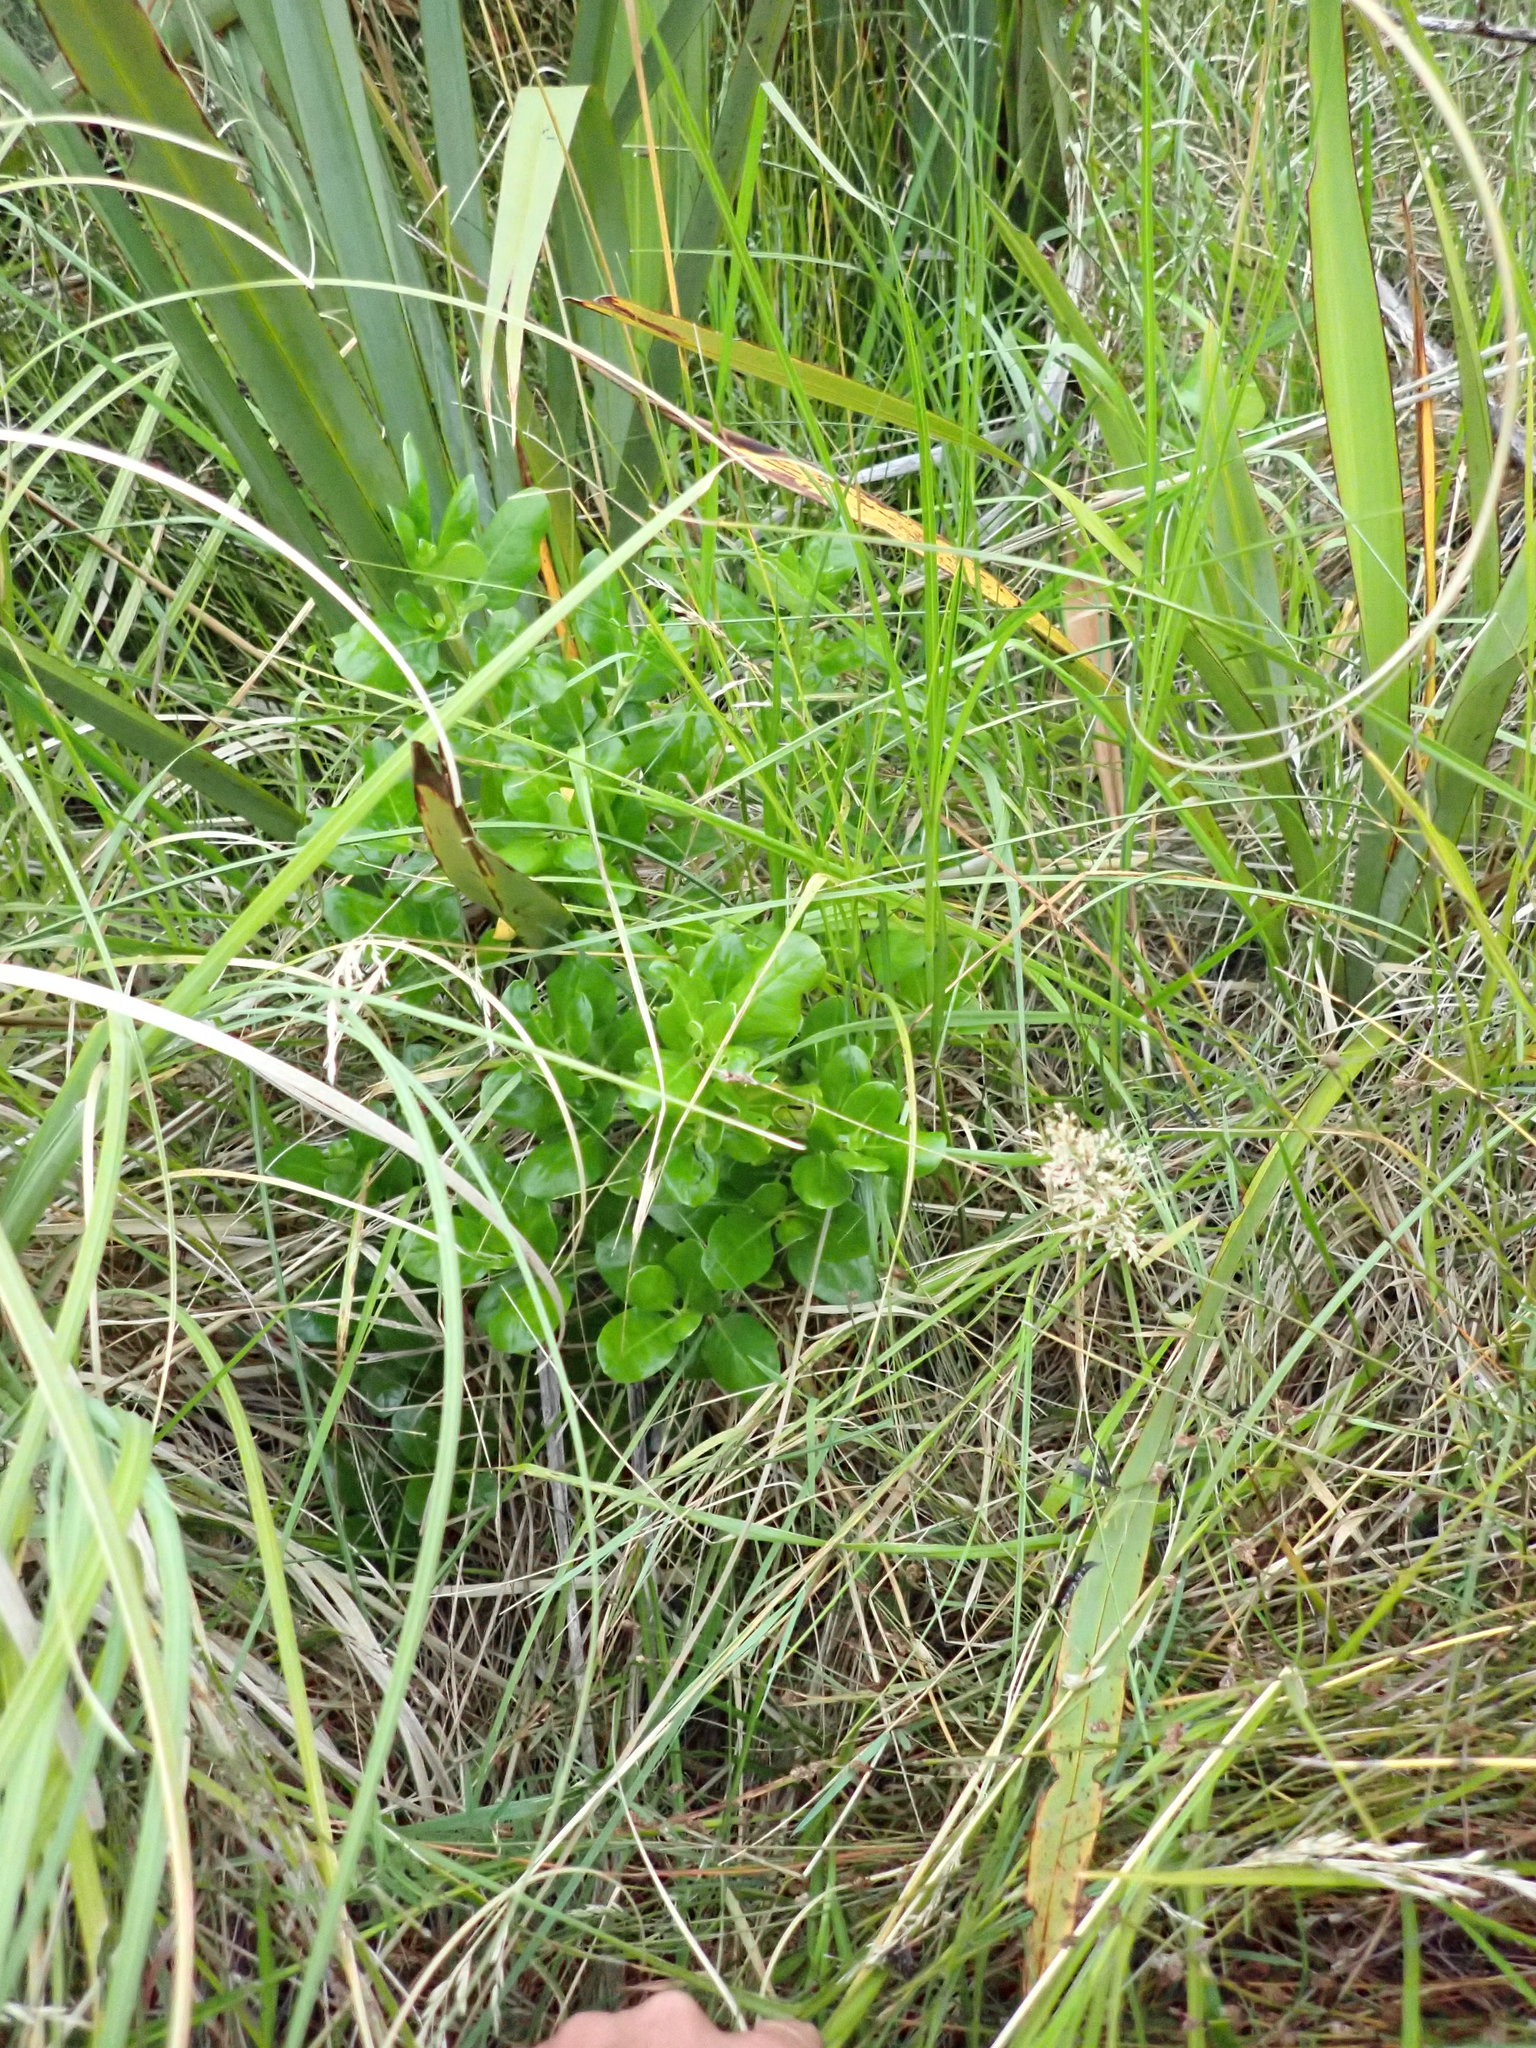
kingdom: Plantae
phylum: Tracheophyta
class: Magnoliopsida
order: Gentianales
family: Rubiaceae
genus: Coprosma
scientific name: Coprosma repens
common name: Tree bedstraw
